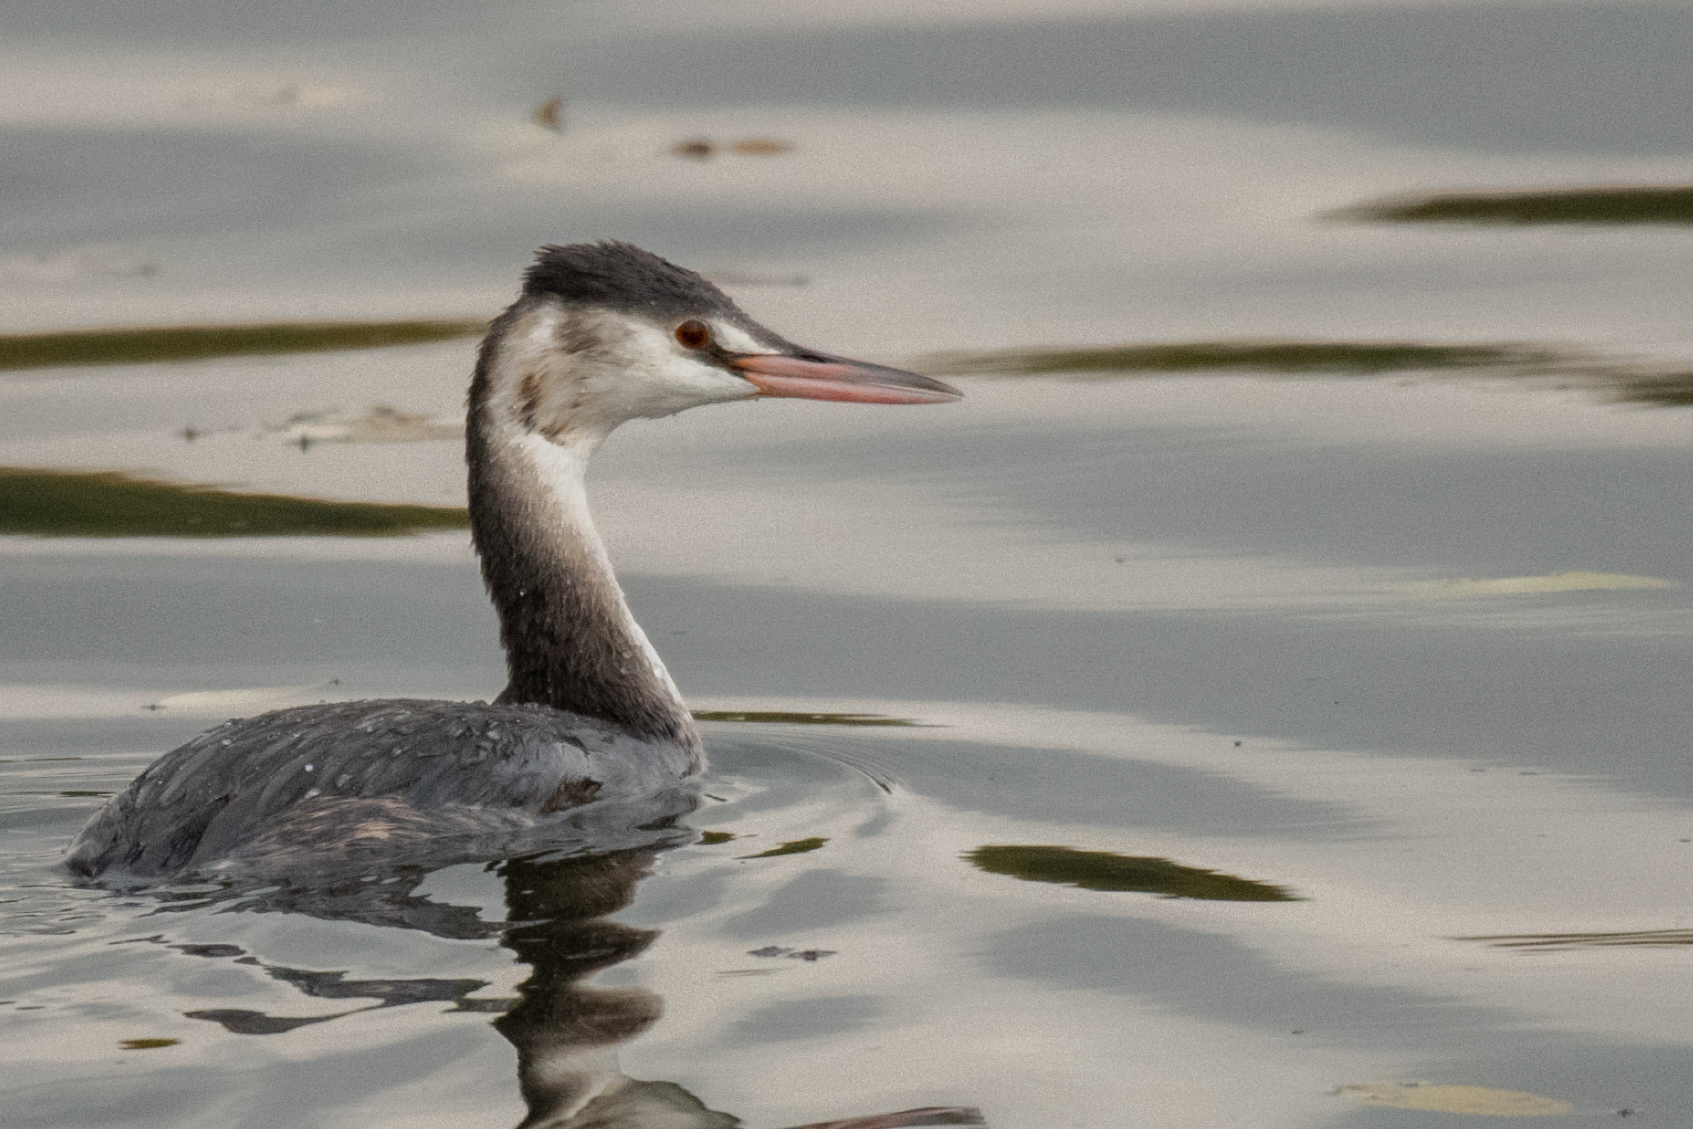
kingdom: Animalia
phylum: Chordata
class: Aves
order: Podicipediformes
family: Podicipedidae
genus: Podiceps
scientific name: Podiceps cristatus
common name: Great crested grebe
